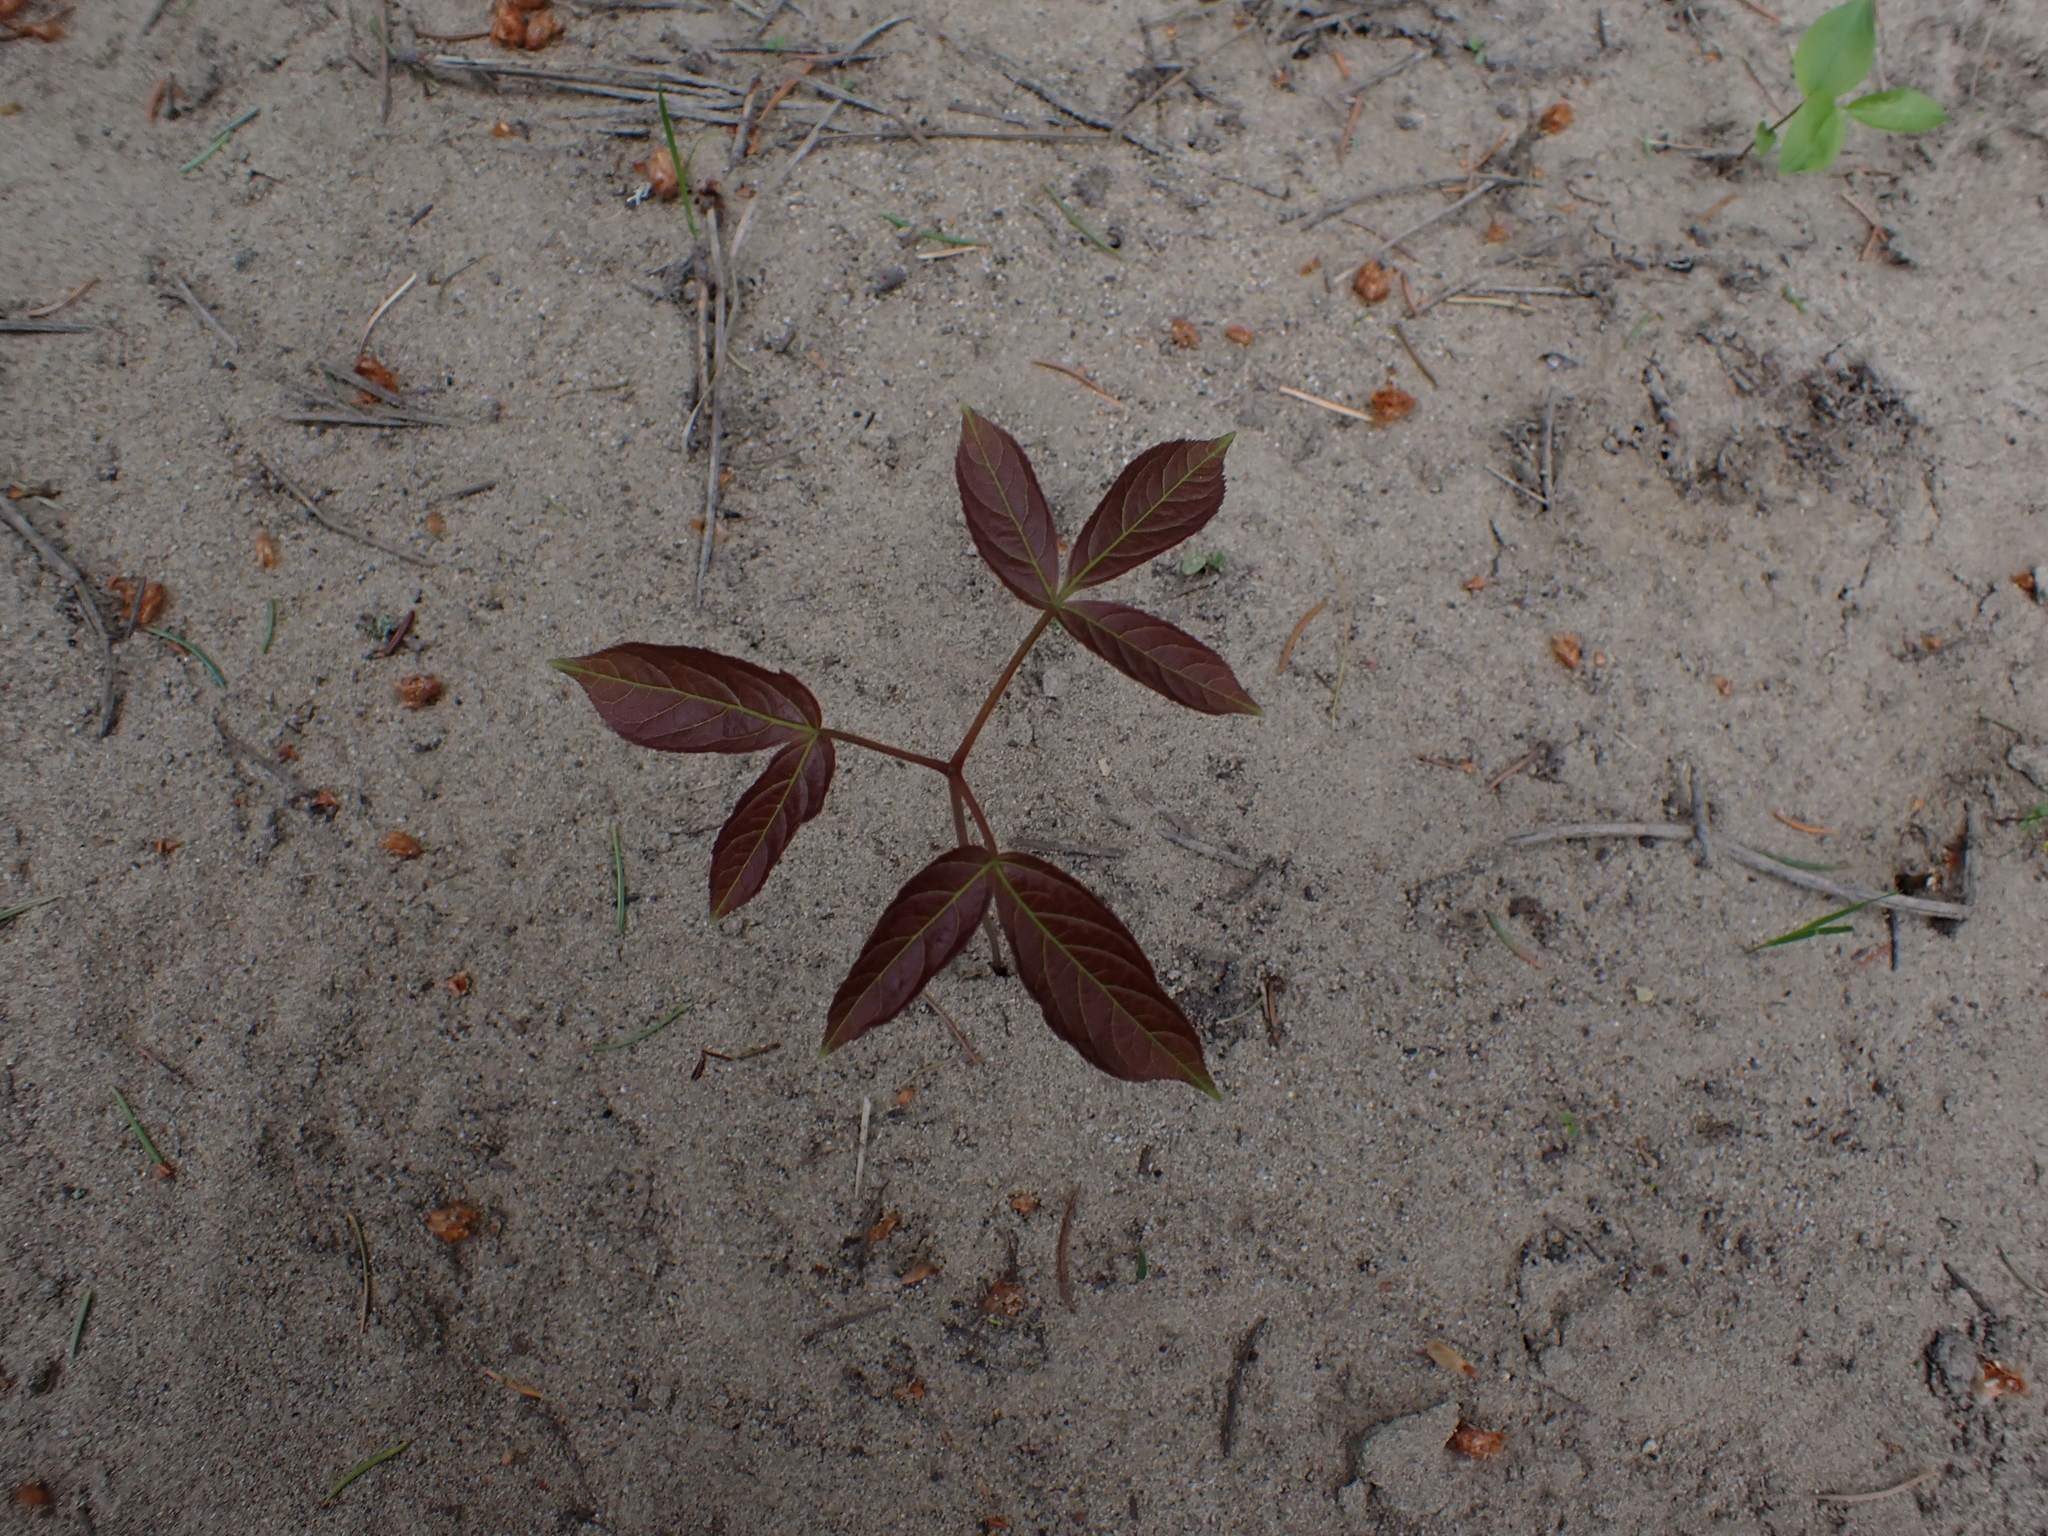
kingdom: Plantae
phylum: Tracheophyta
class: Magnoliopsida
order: Apiales
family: Araliaceae
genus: Aralia
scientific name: Aralia nudicaulis
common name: Wild sarsaparilla
